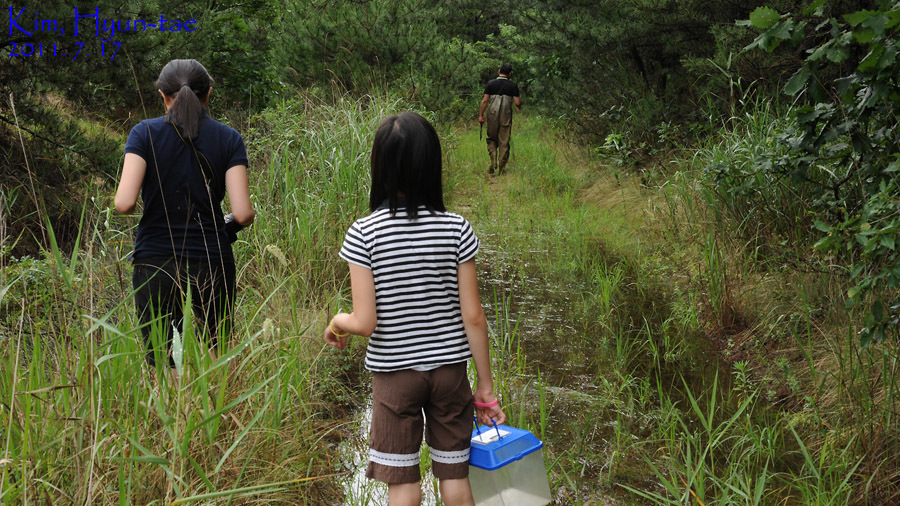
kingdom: Animalia
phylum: Chordata
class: Amphibia
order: Anura
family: Ranidae
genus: Pelophylax
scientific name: Pelophylax nigromaculatus
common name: Black-spotted pond frog
